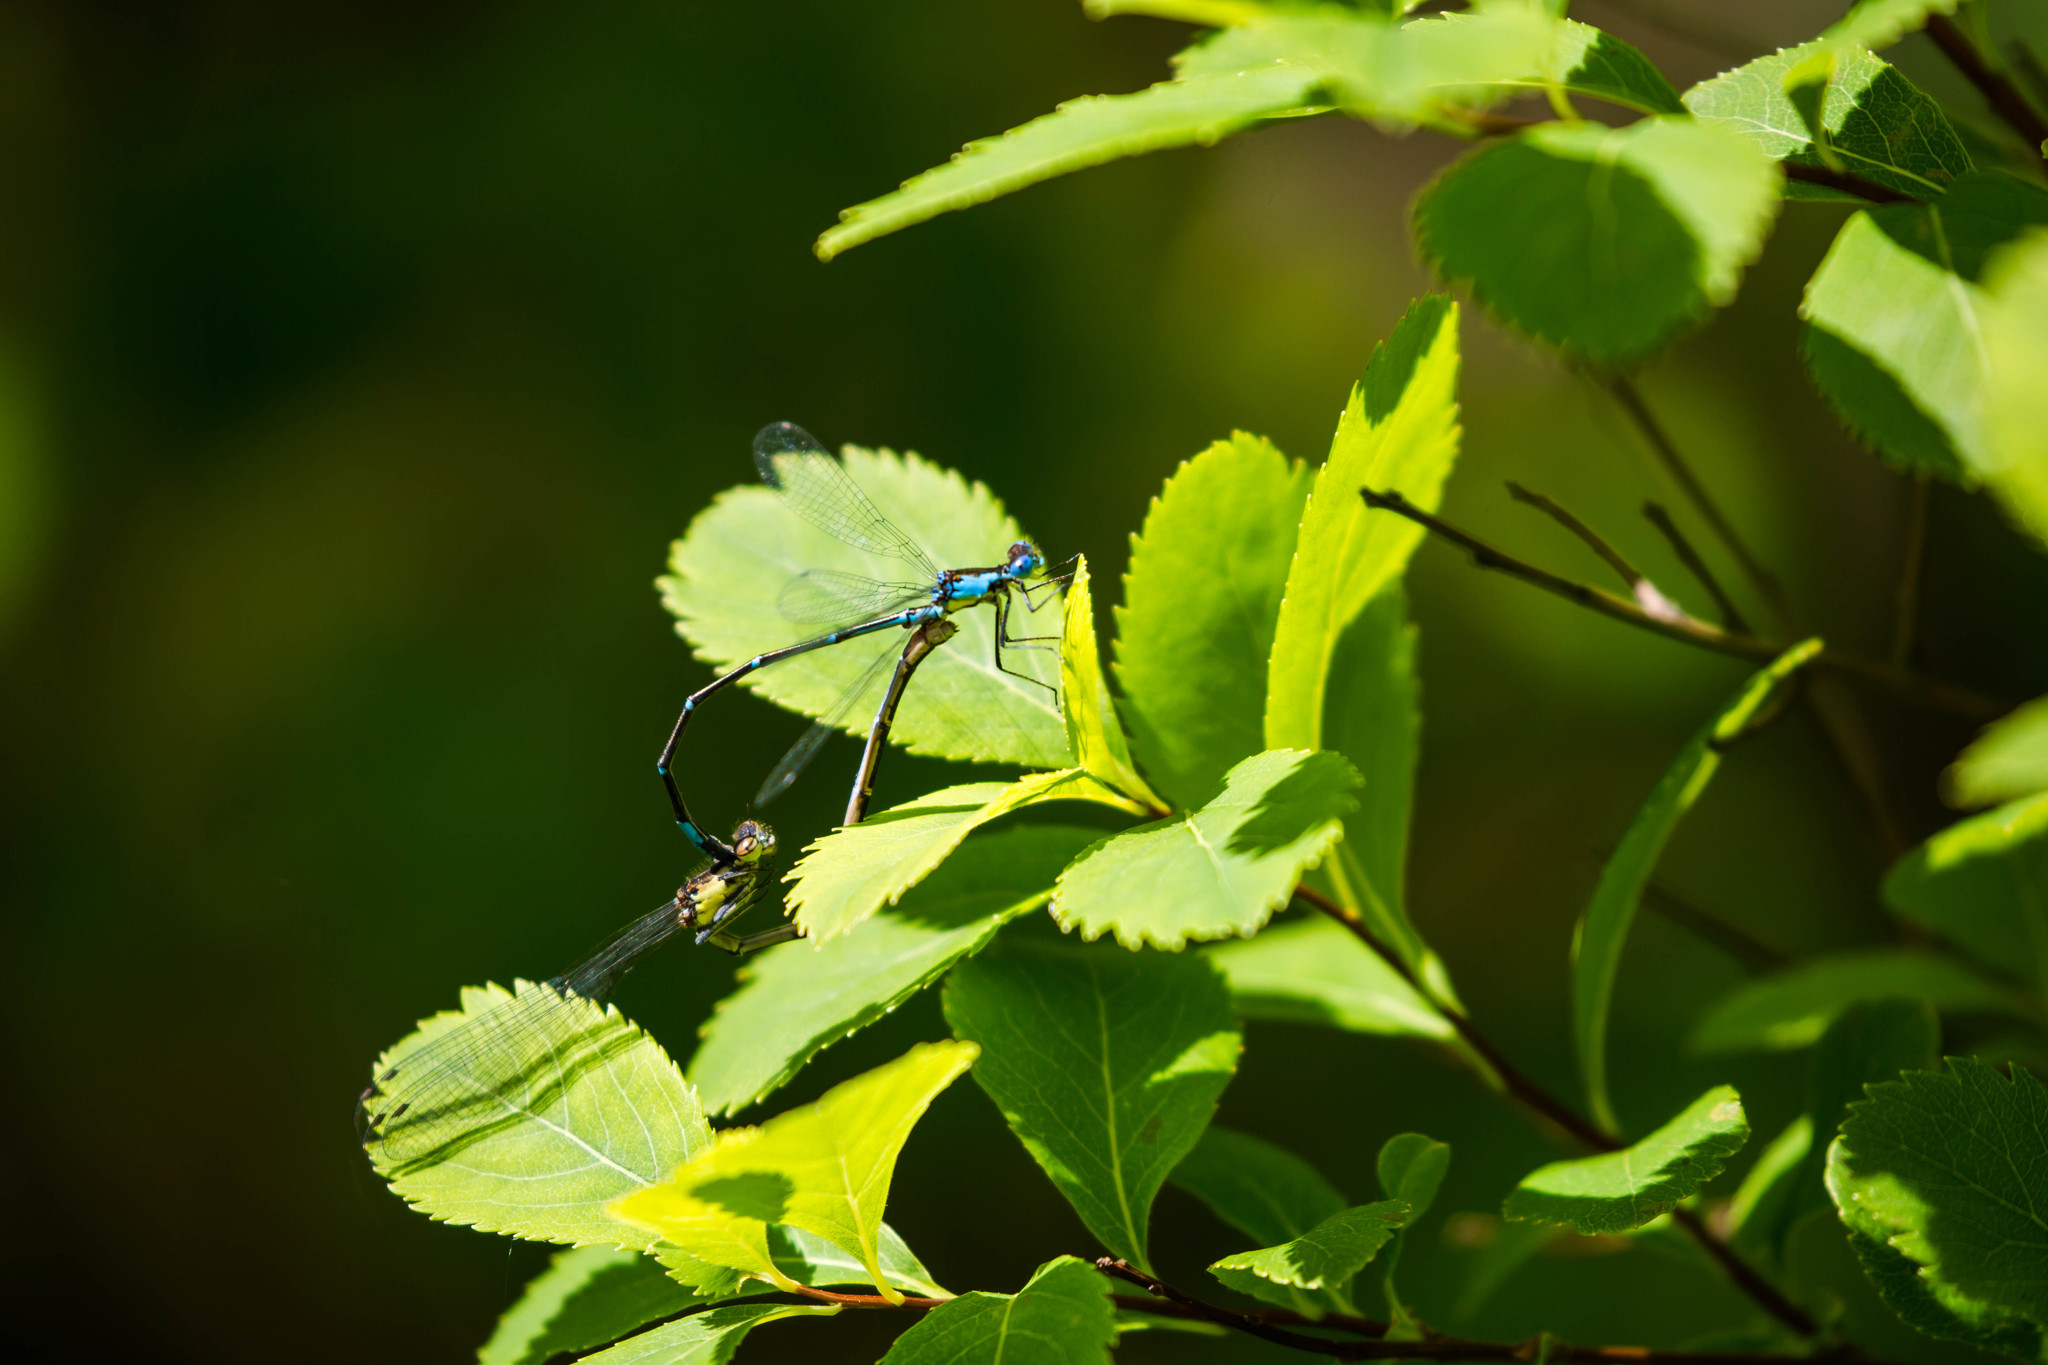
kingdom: Animalia
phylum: Arthropoda
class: Insecta
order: Odonata
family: Coenagrionidae
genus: Chromagrion
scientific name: Chromagrion conditum
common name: Aurora damsel
